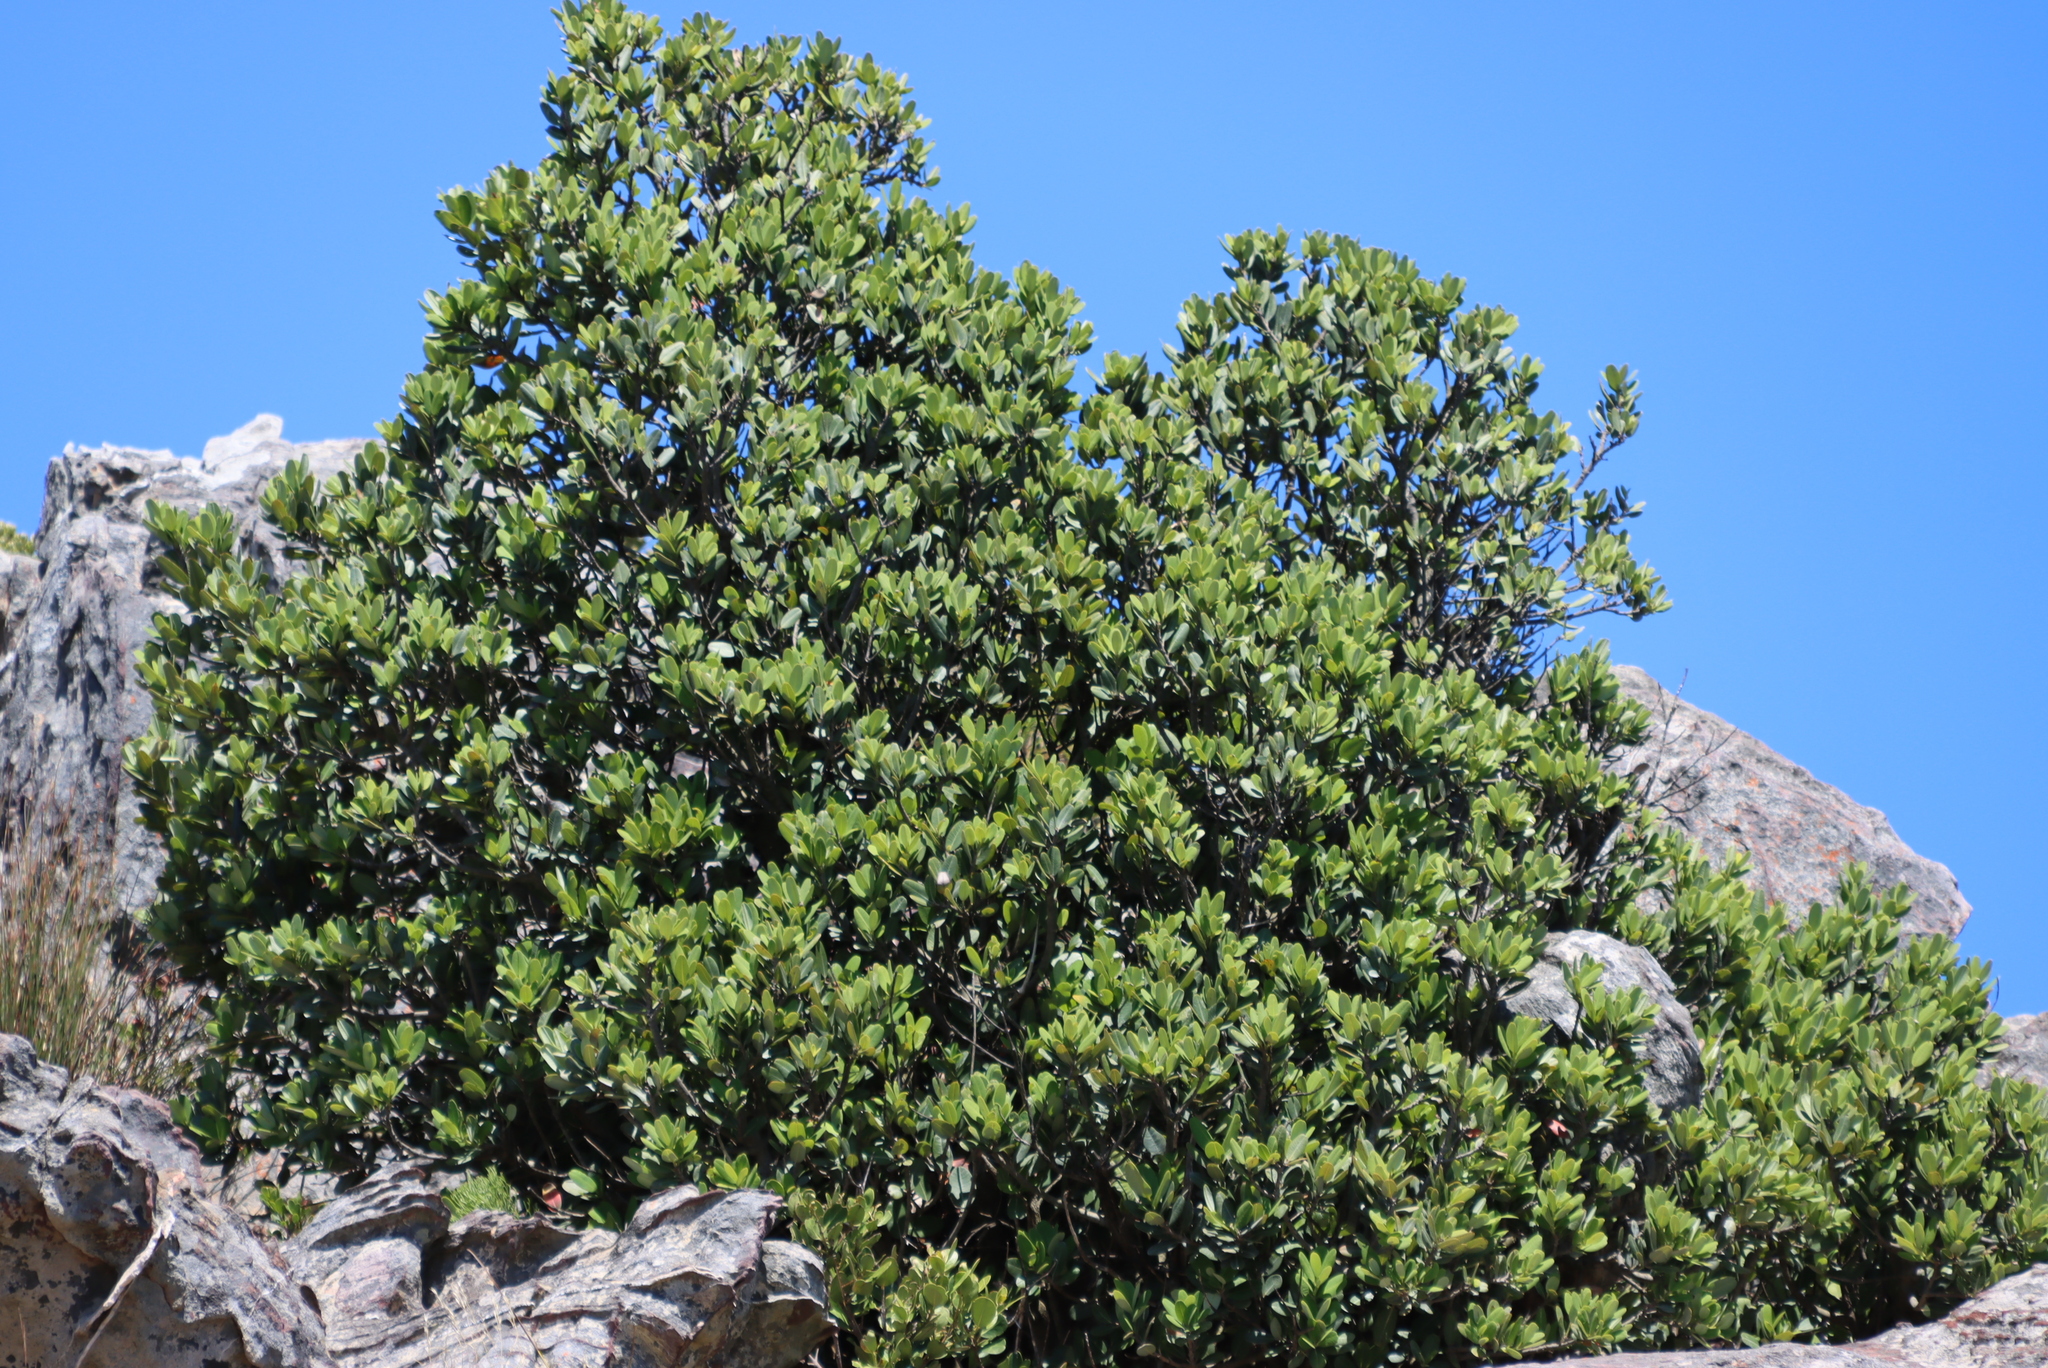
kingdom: Plantae
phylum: Tracheophyta
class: Magnoliopsida
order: Sapindales
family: Anacardiaceae
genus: Heeria
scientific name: Heeria argentea
